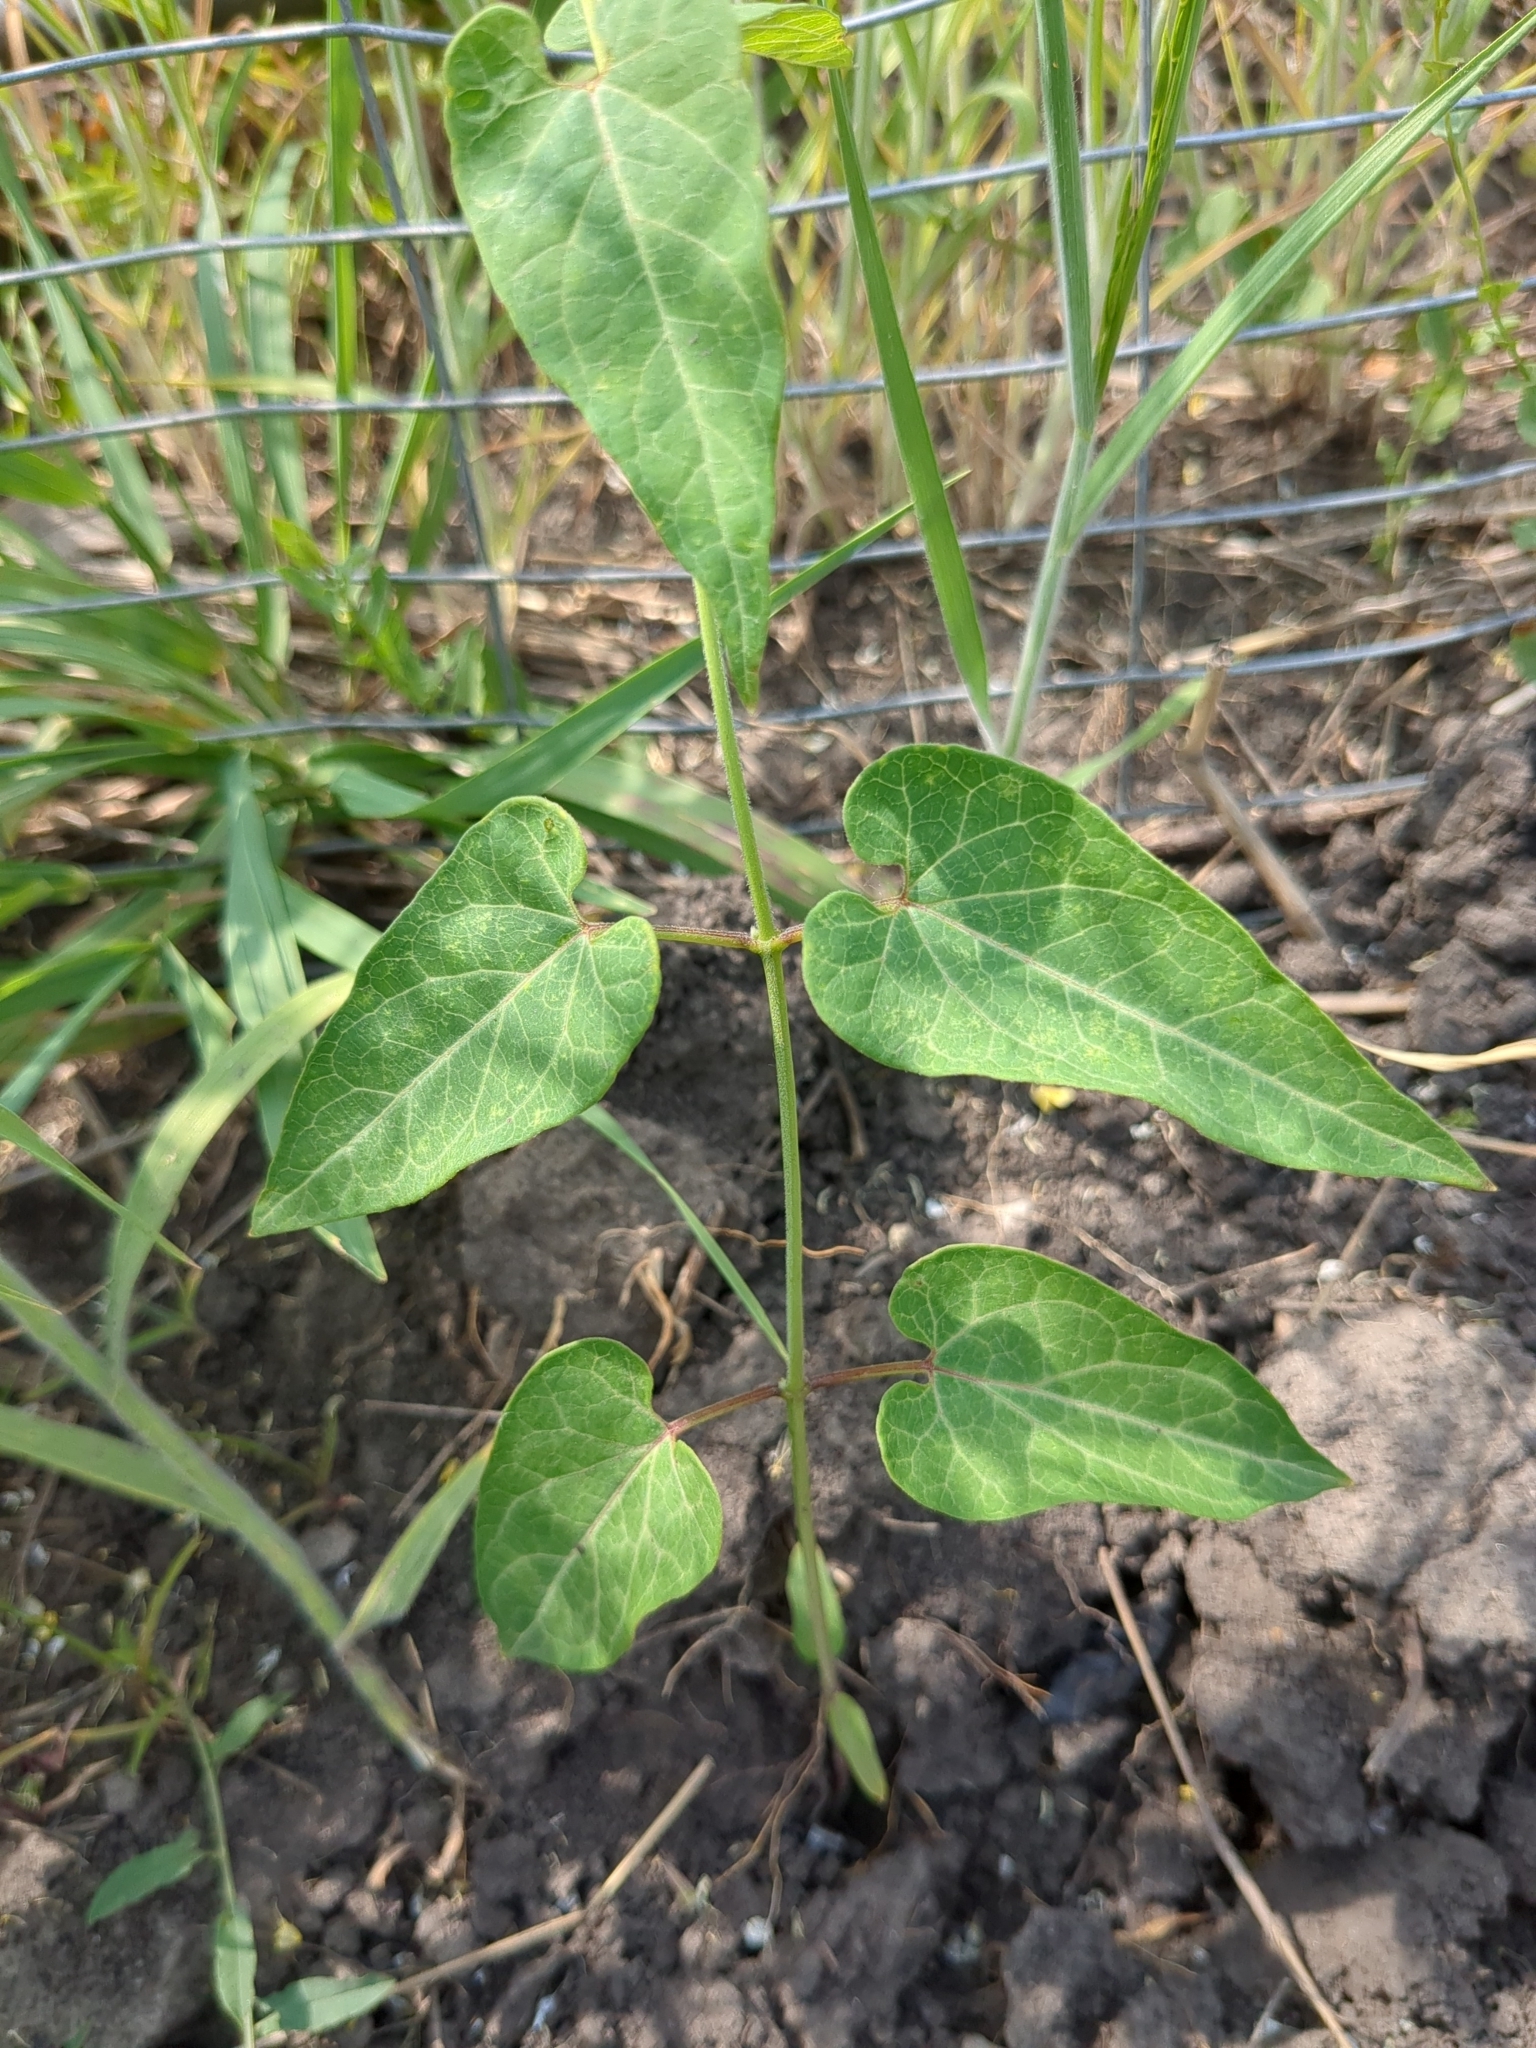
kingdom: Plantae
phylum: Tracheophyta
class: Magnoliopsida
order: Gentianales
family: Apocynaceae
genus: Cynanchum
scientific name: Cynanchum laeve
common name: Sandvine
